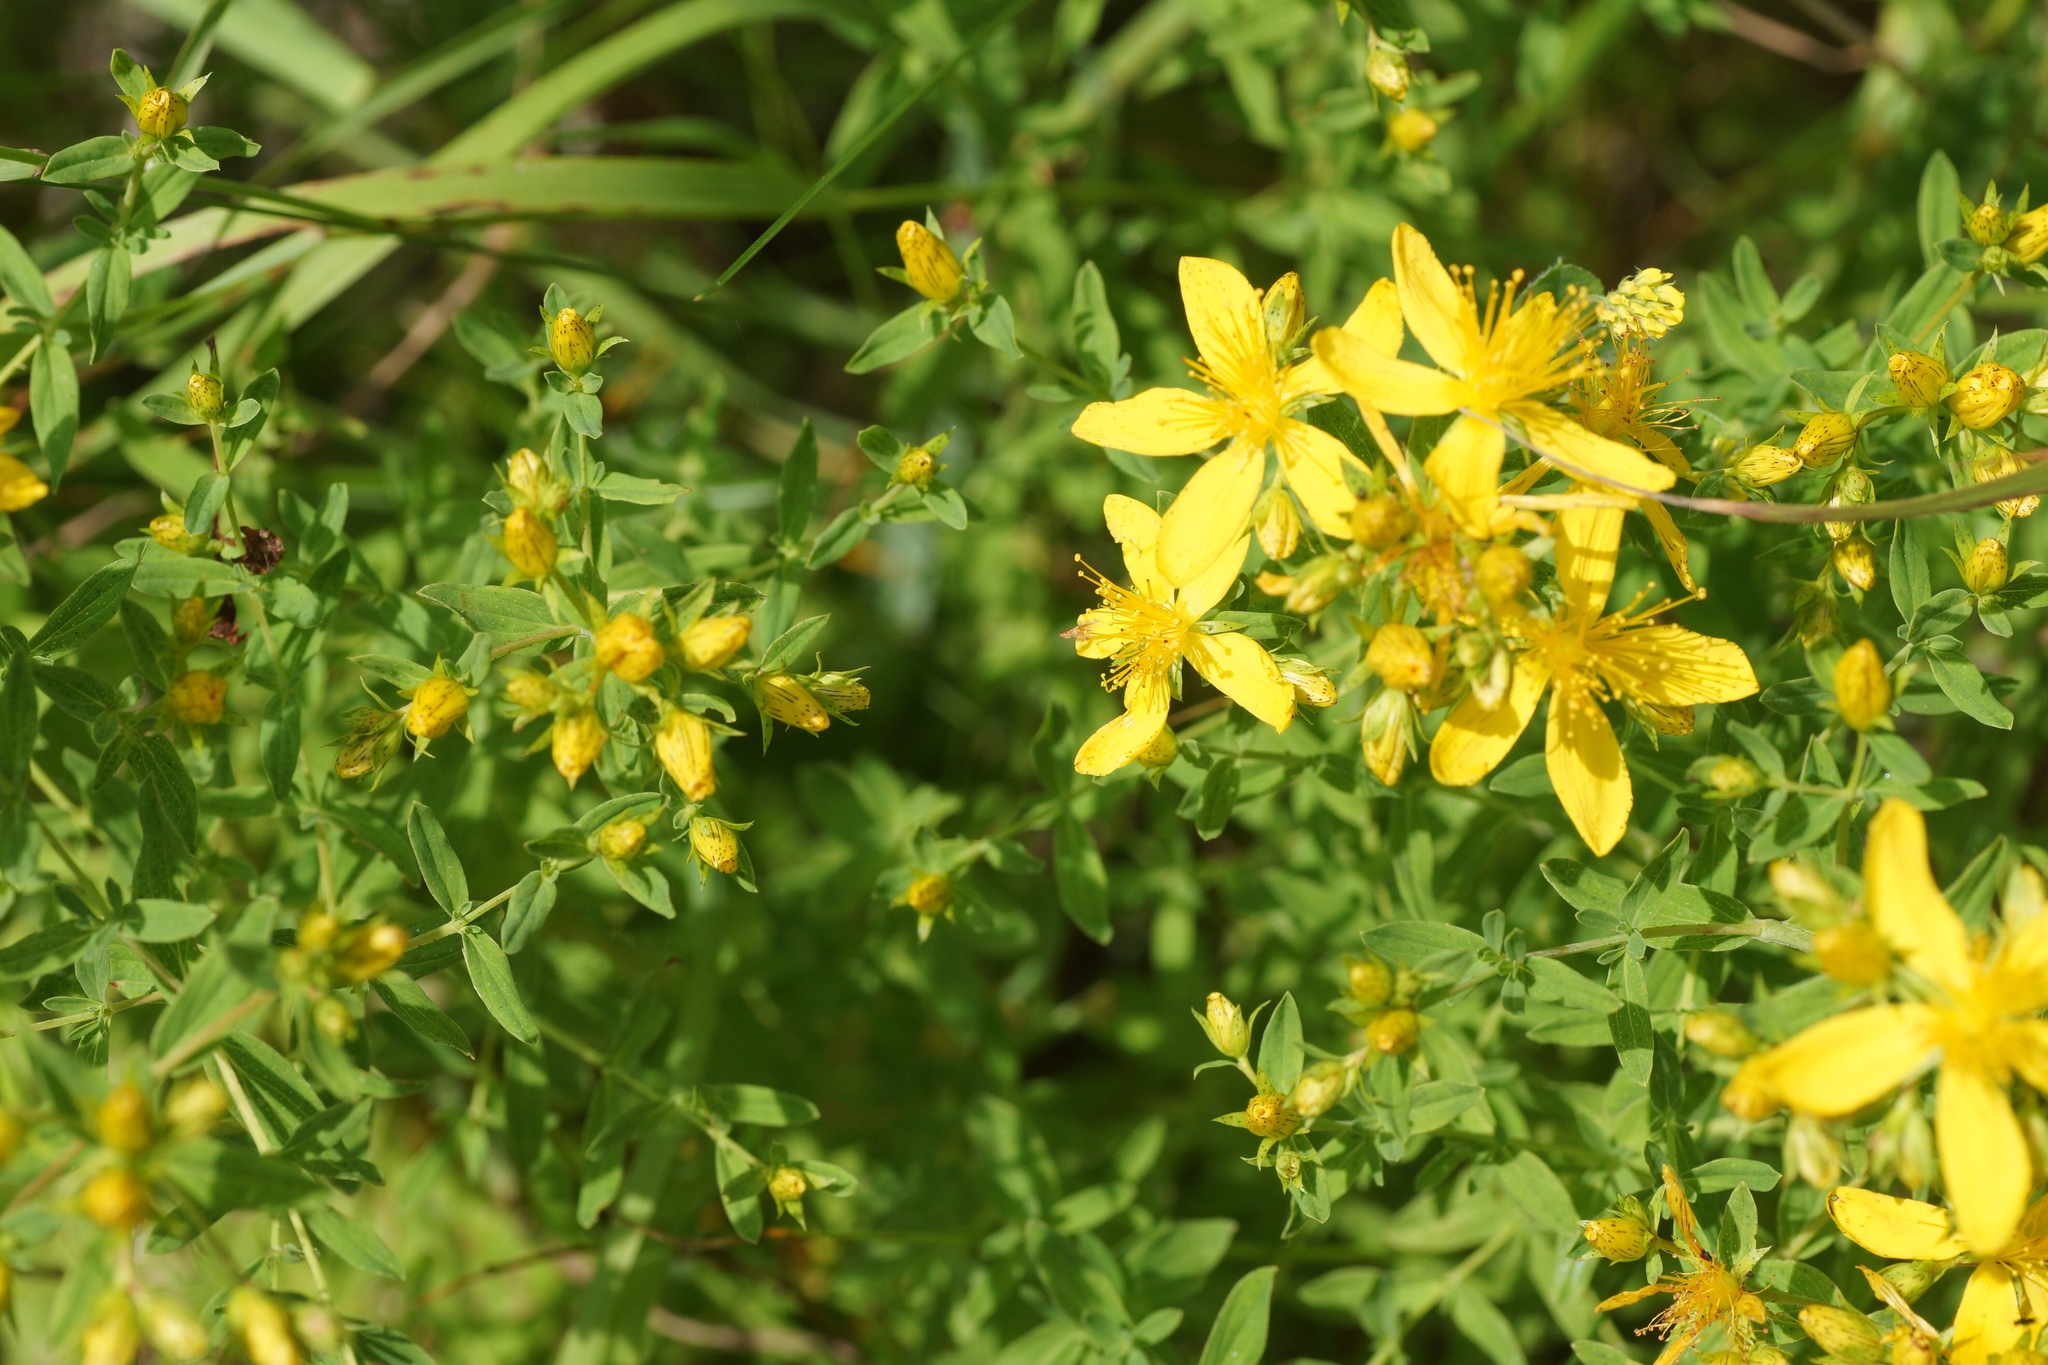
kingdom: Plantae
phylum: Tracheophyta
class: Magnoliopsida
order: Malpighiales
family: Hypericaceae
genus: Hypericum
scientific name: Hypericum perforatum
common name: Common st. johnswort
